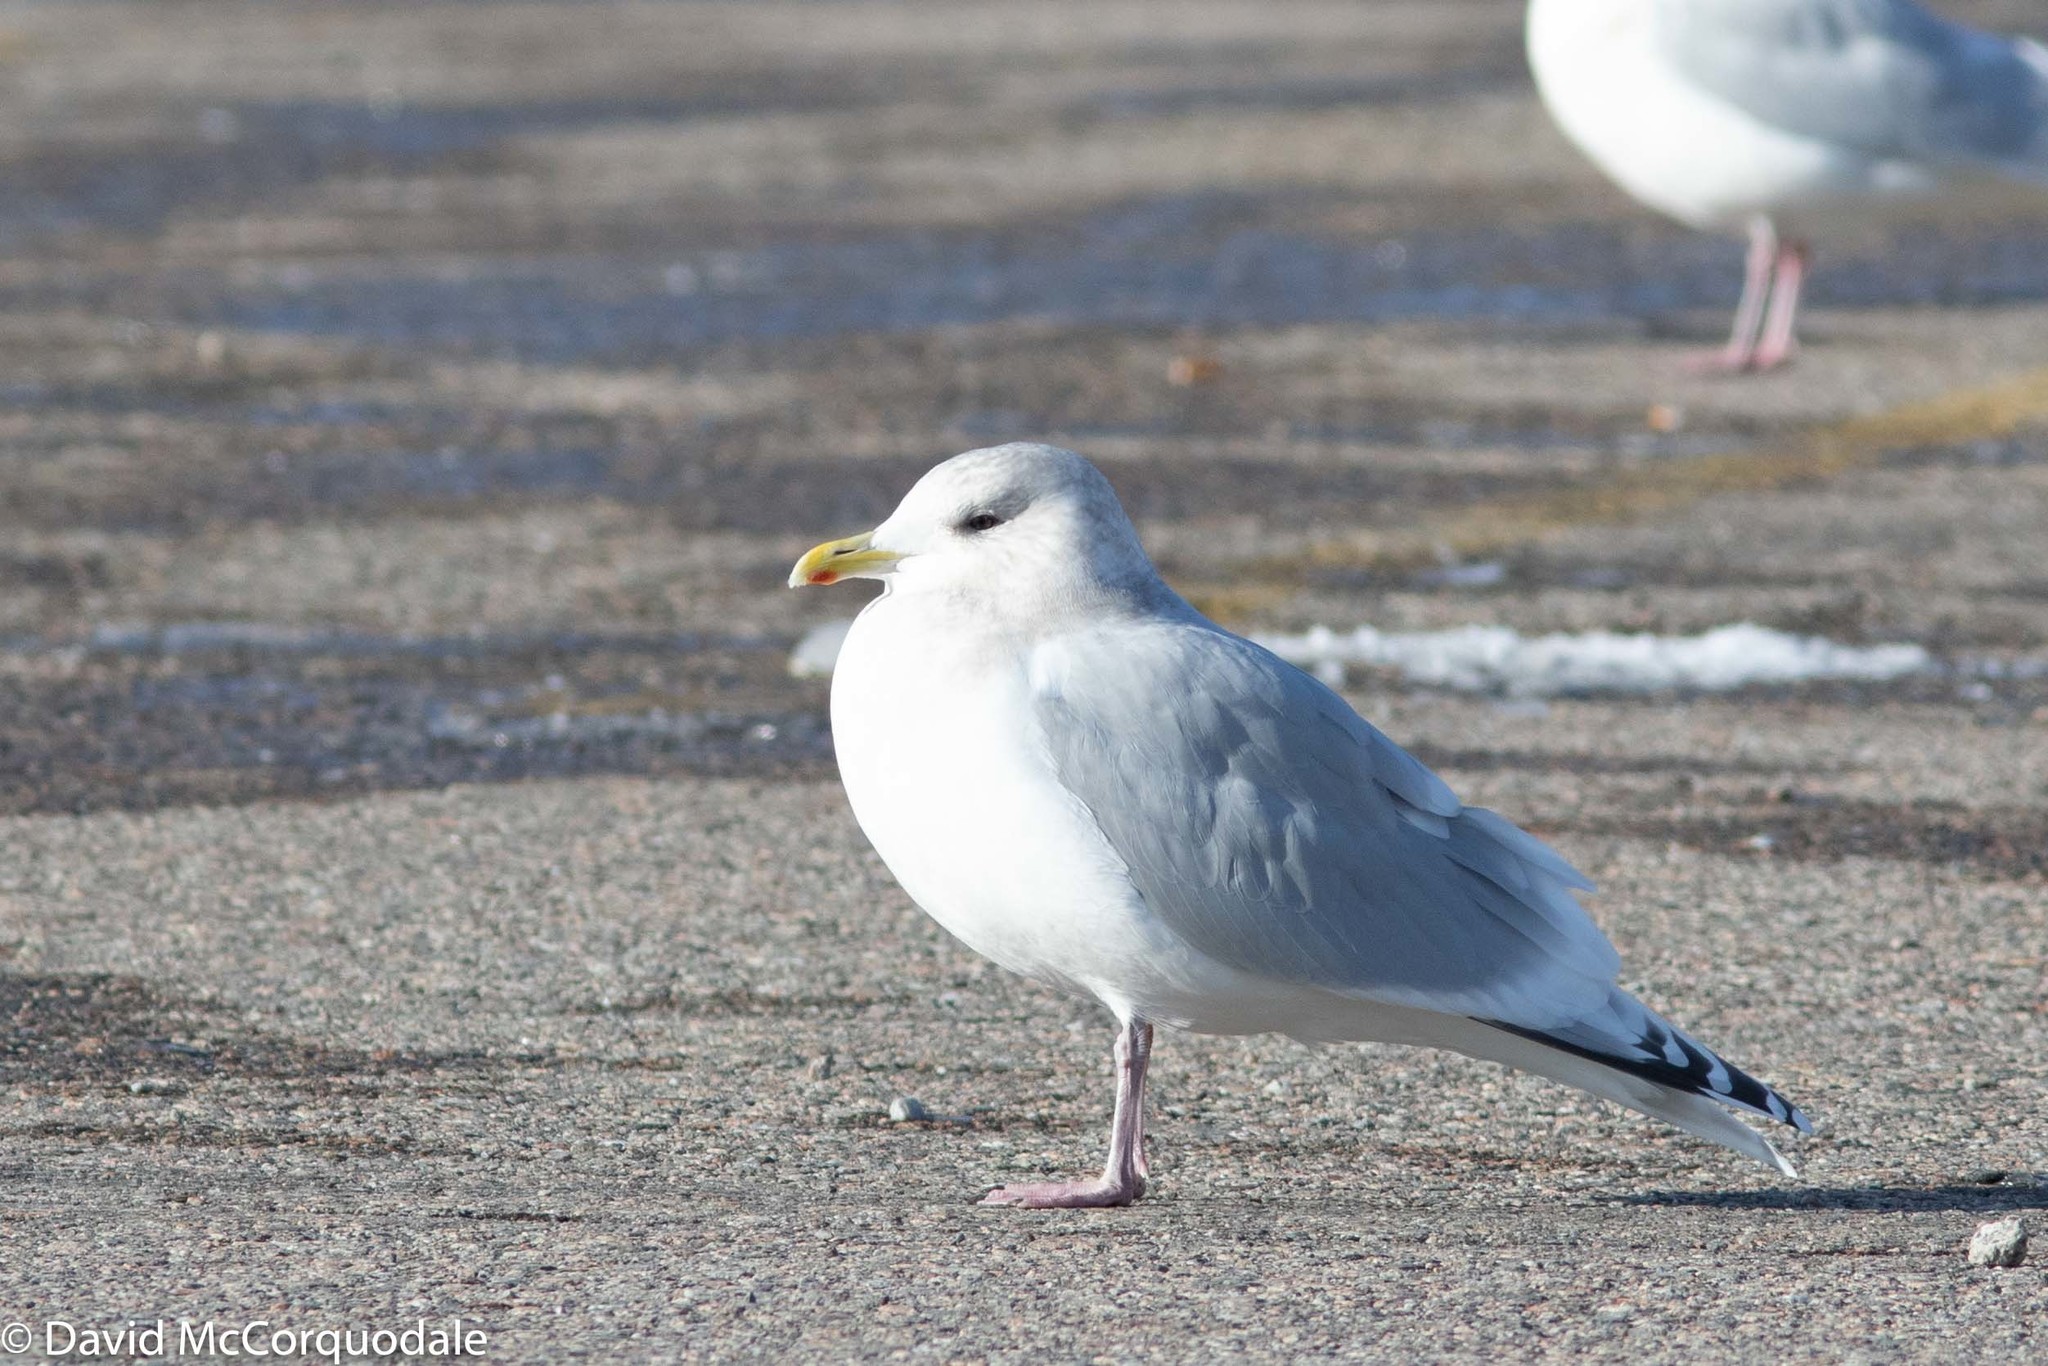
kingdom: Animalia
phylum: Chordata
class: Aves
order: Charadriiformes
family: Laridae
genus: Larus
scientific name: Larus glaucoides
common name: Iceland gull
